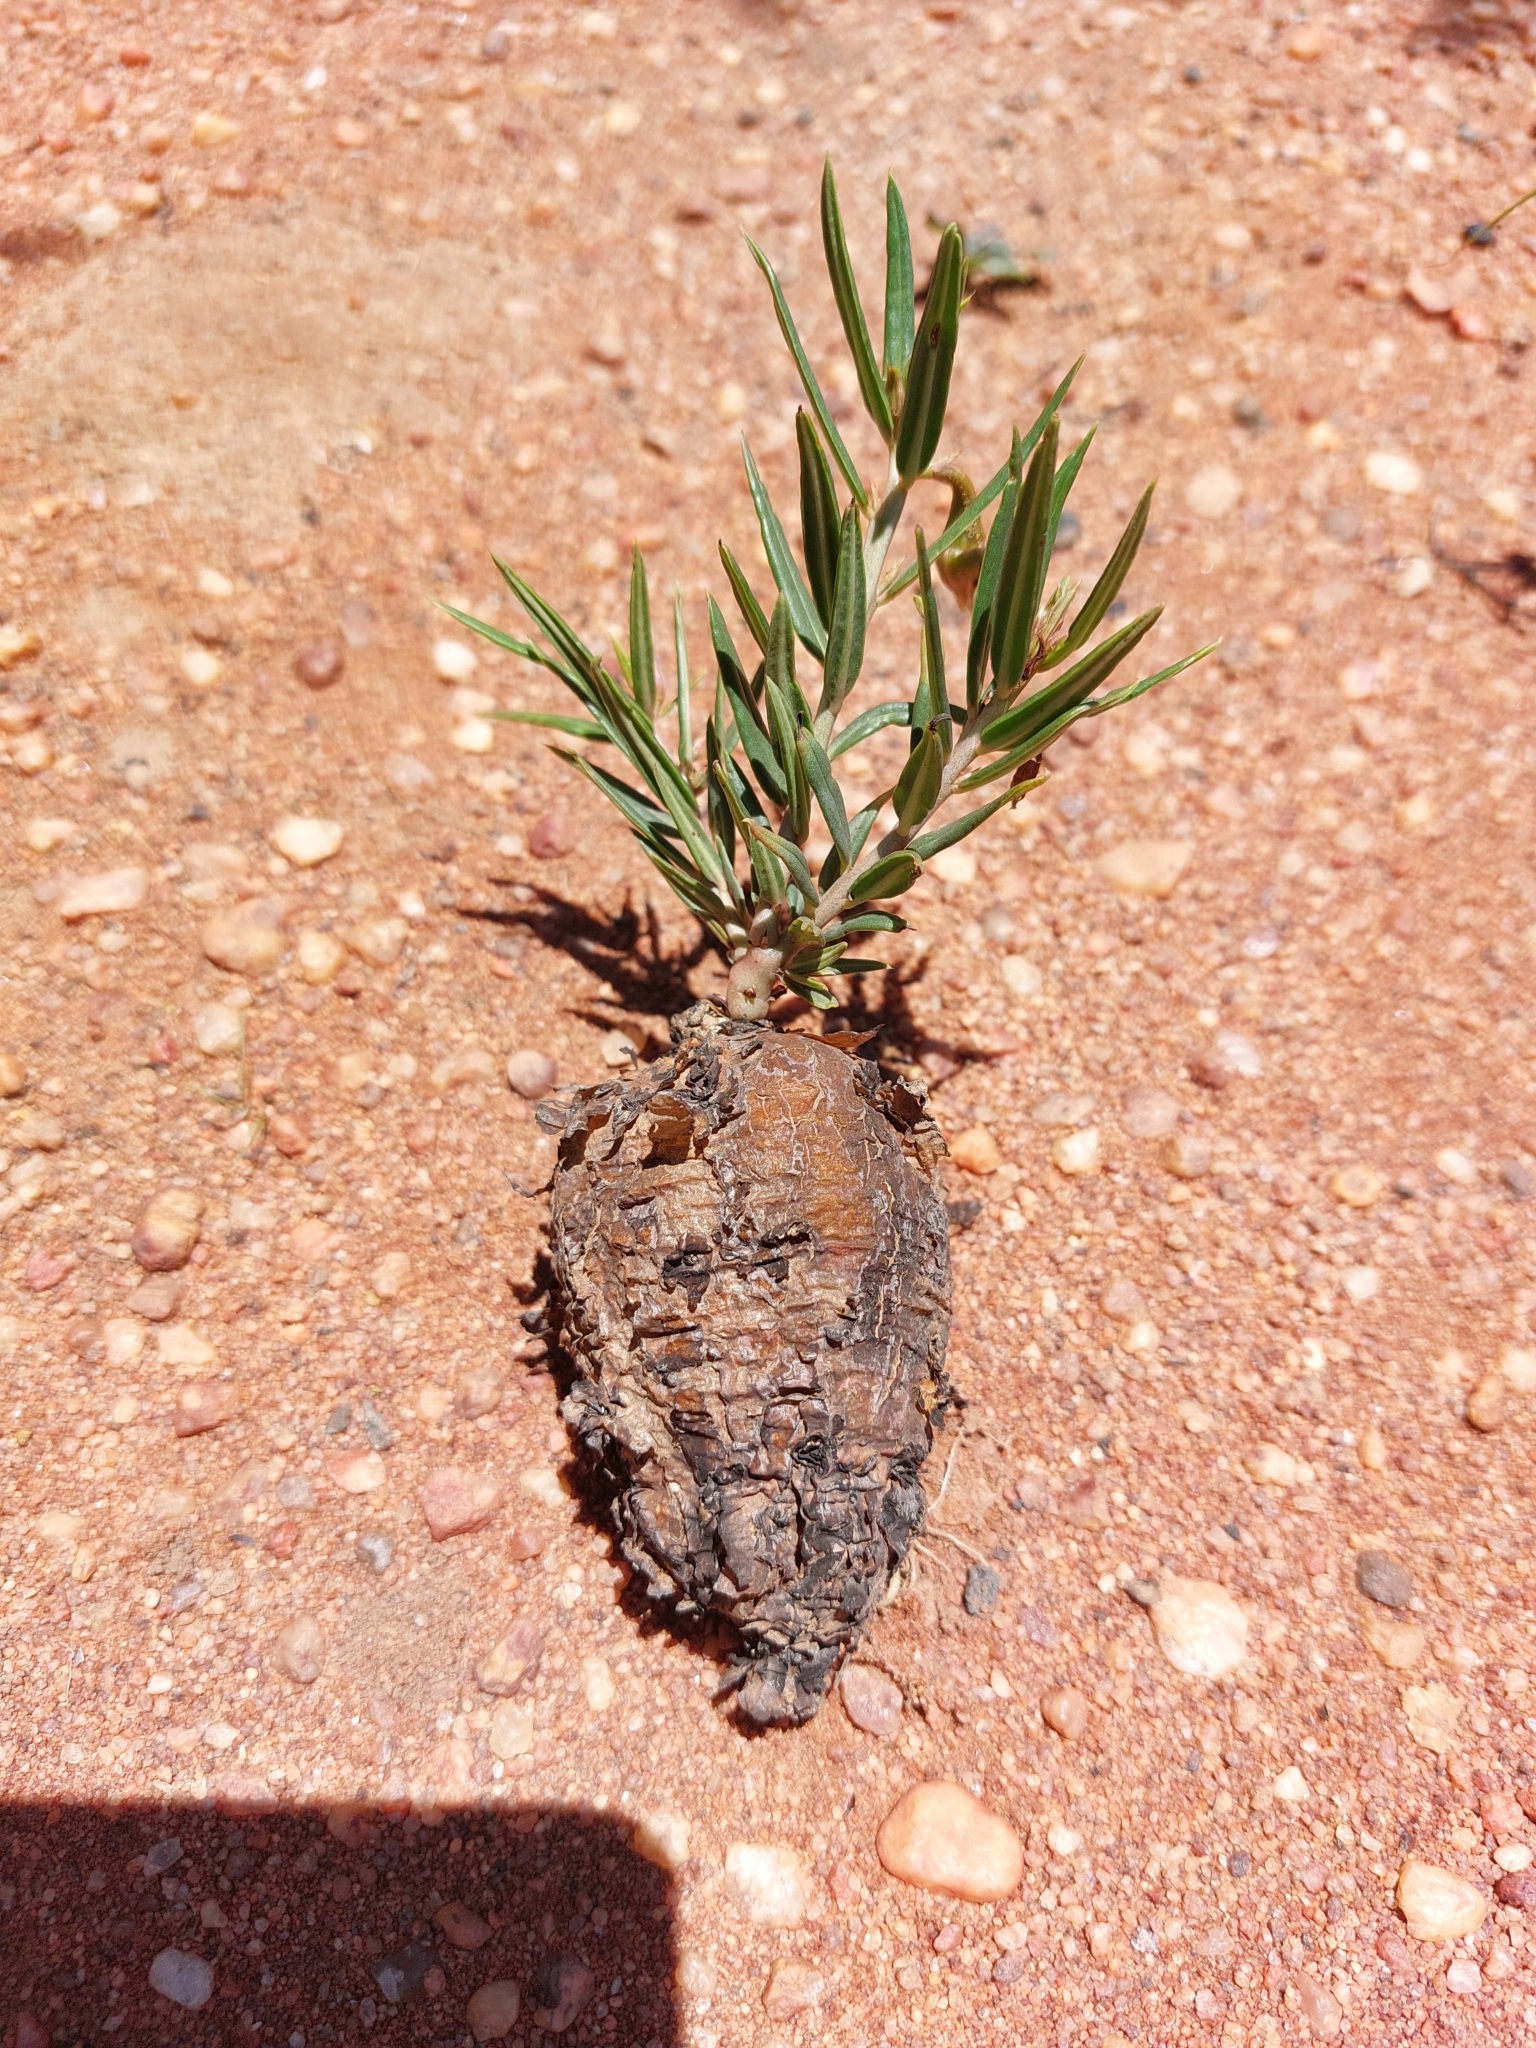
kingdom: Plantae
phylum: Tracheophyta
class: Magnoliopsida
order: Caryophyllales
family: Talinaceae
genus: Talinum
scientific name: Talinum caffrum
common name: Flameflower
